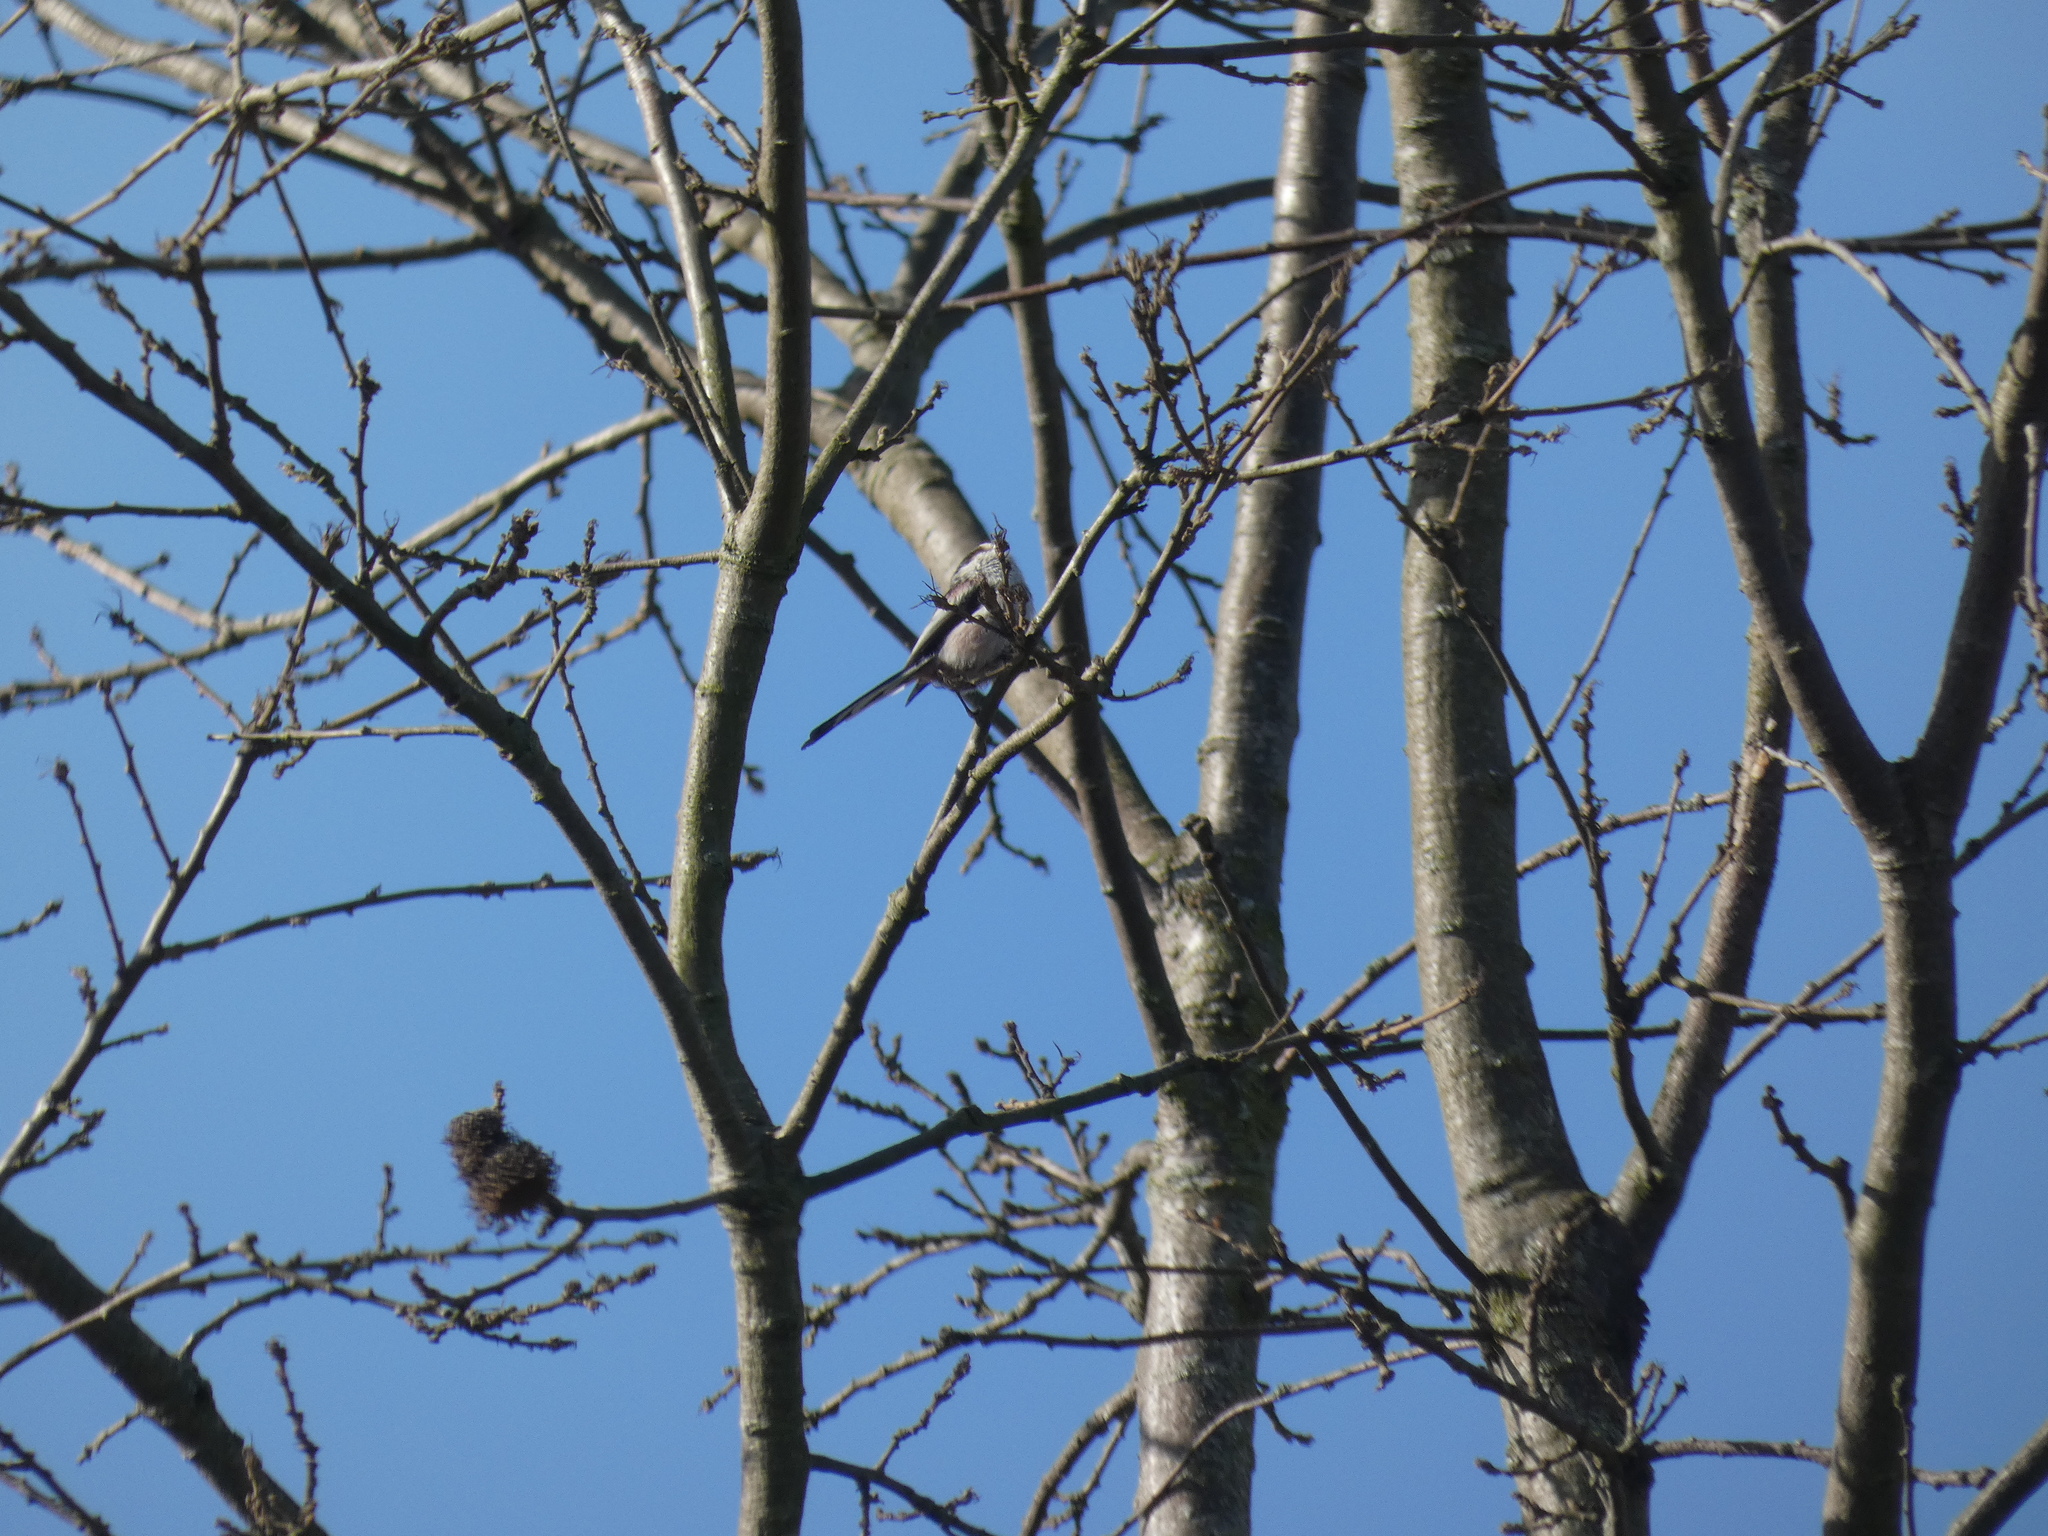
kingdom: Animalia
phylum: Chordata
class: Aves
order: Passeriformes
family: Aegithalidae
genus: Aegithalos
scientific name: Aegithalos caudatus
